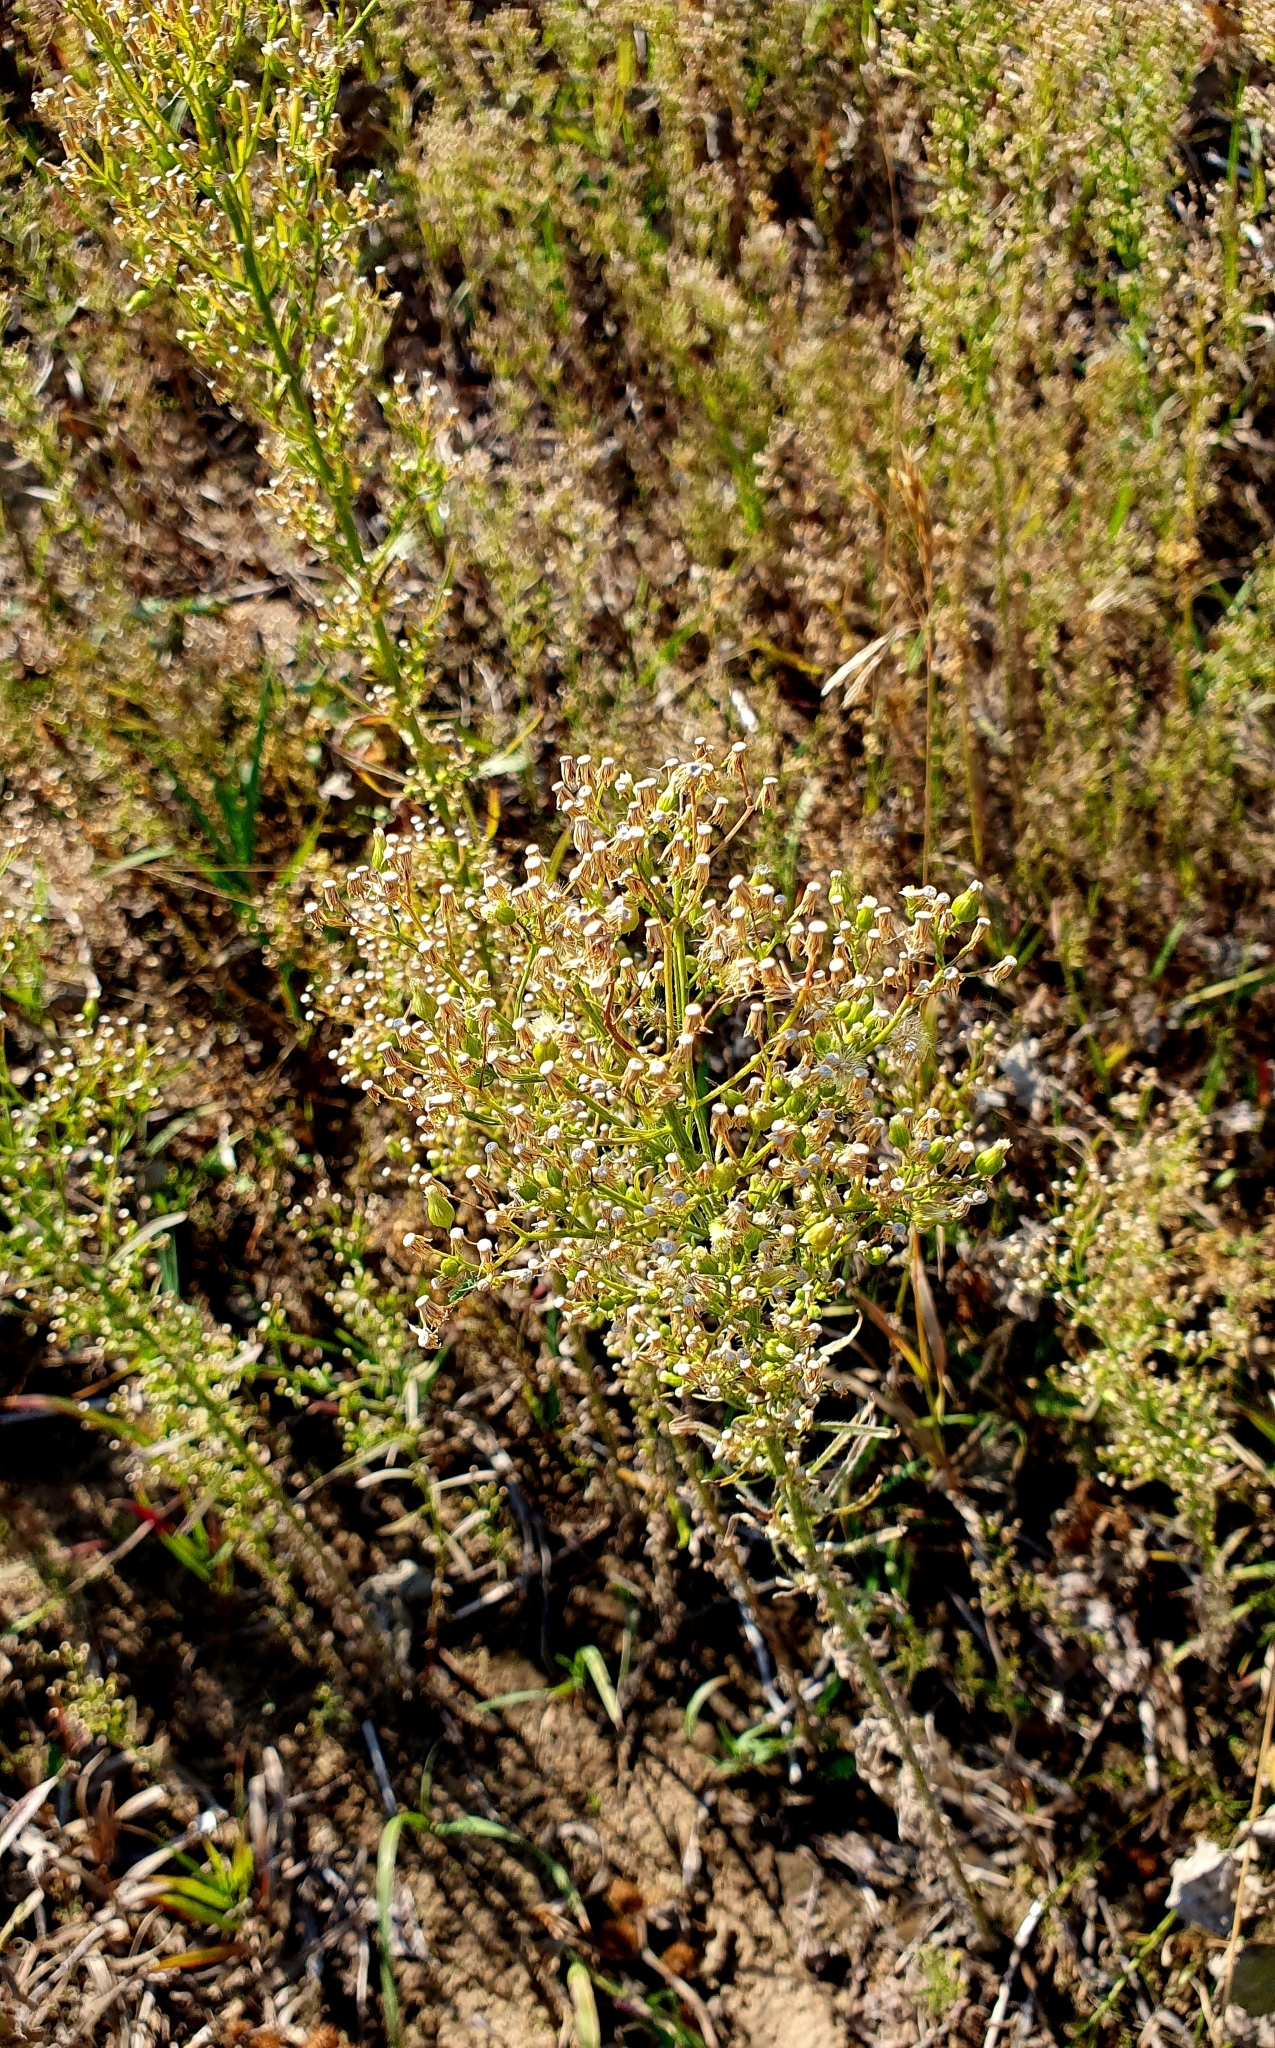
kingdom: Plantae
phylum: Tracheophyta
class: Magnoliopsida
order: Asterales
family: Asteraceae
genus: Erigeron
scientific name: Erigeron canadensis
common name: Canadian fleabane
